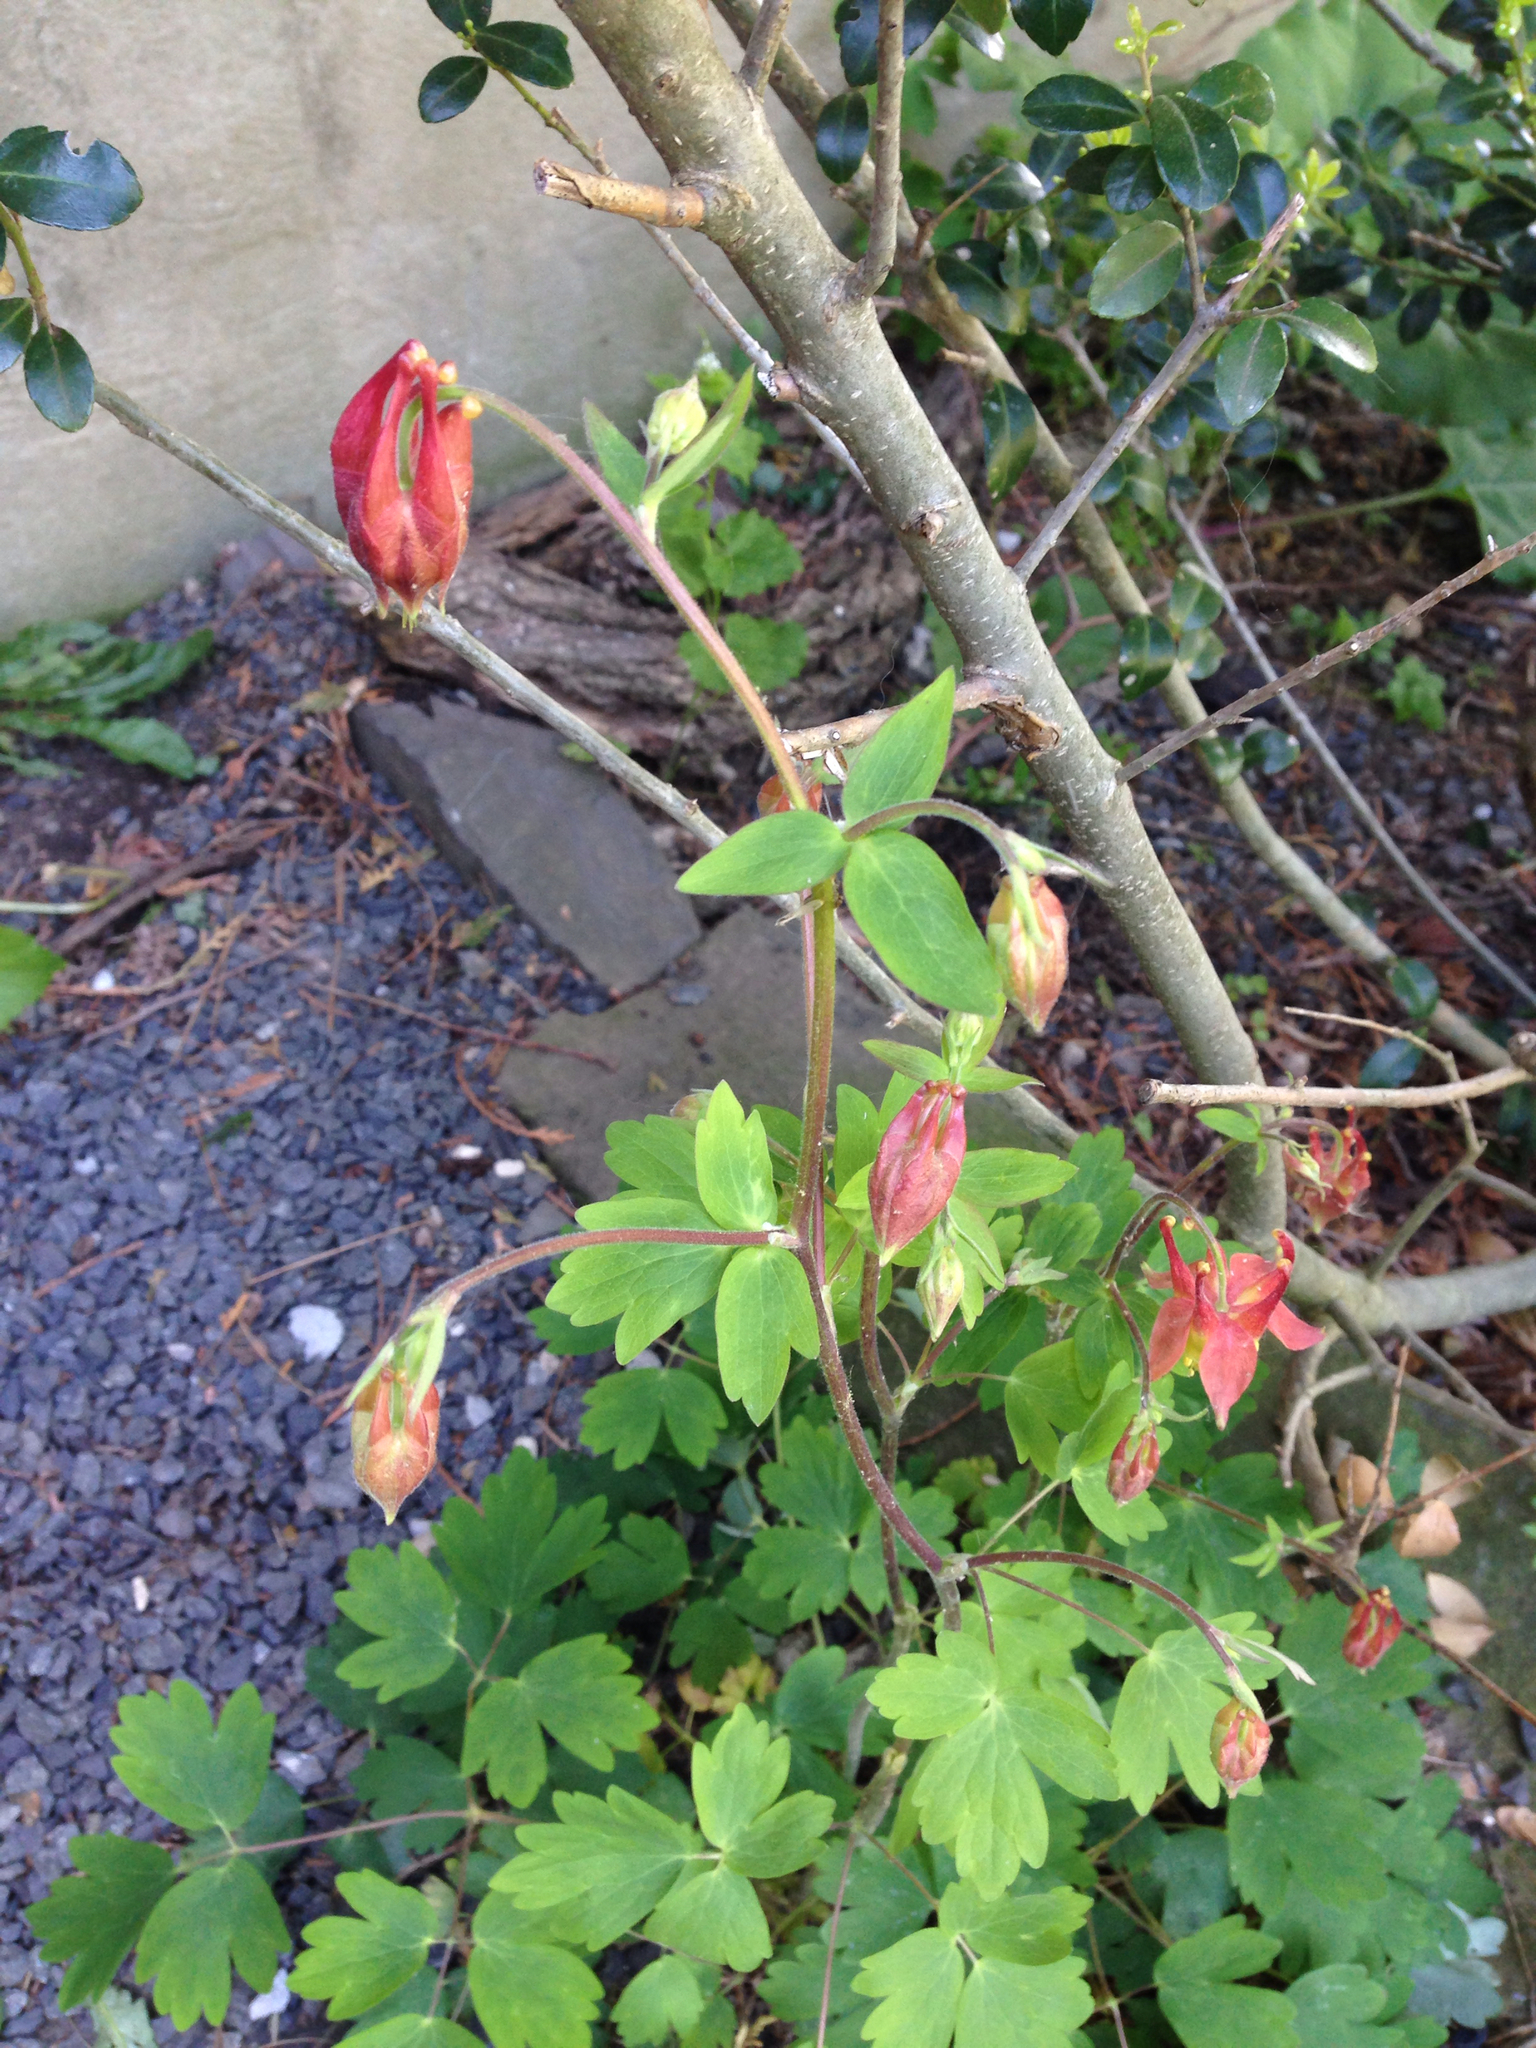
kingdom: Plantae
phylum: Tracheophyta
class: Magnoliopsida
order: Ranunculales
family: Ranunculaceae
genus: Aquilegia
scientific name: Aquilegia canadensis
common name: American columbine
